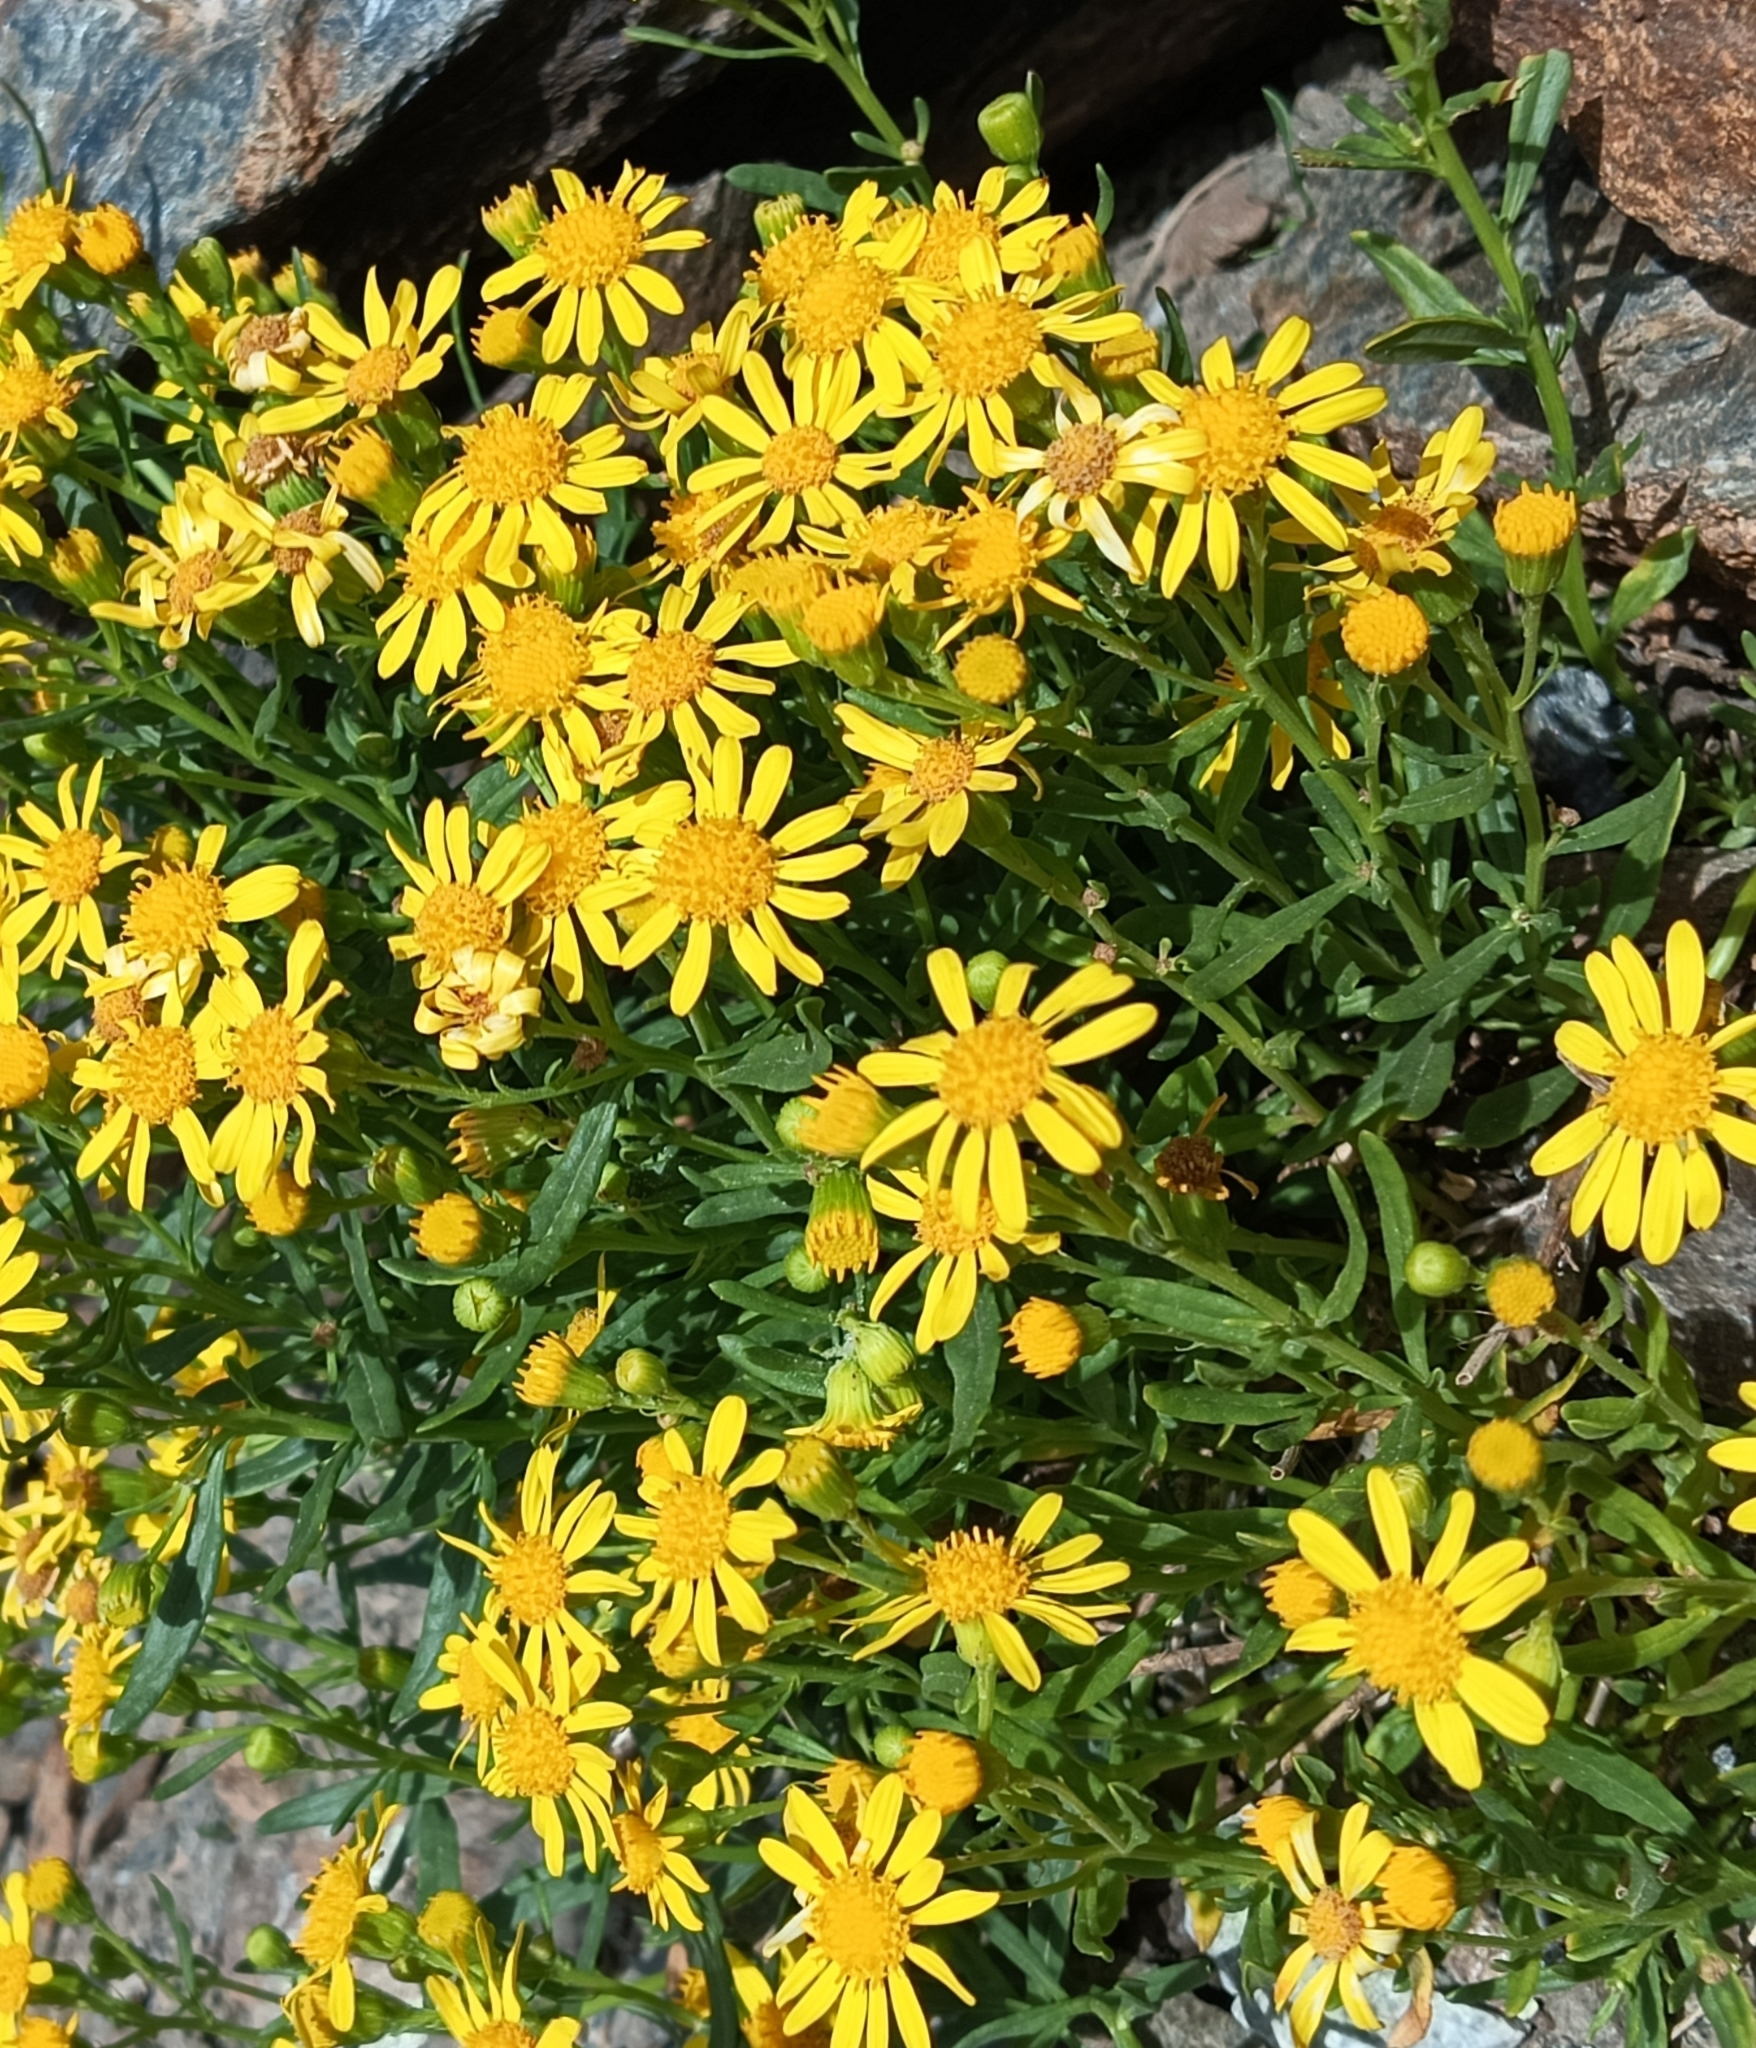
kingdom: Plantae
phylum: Tracheophyta
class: Magnoliopsida
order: Asterales
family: Asteraceae
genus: Senecio
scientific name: Senecio nevadensis
